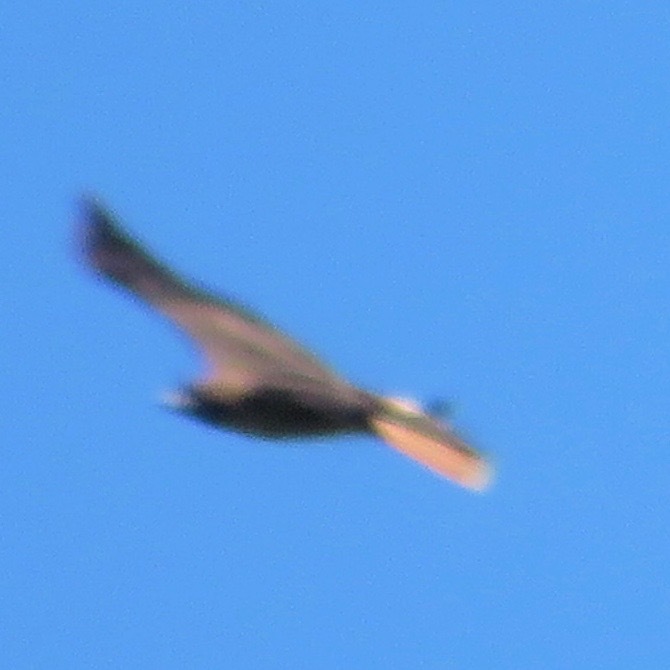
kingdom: Animalia
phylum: Chordata
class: Aves
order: Accipitriformes
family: Accipitridae
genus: Buteo
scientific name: Buteo jamaicensis
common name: Red-tailed hawk
